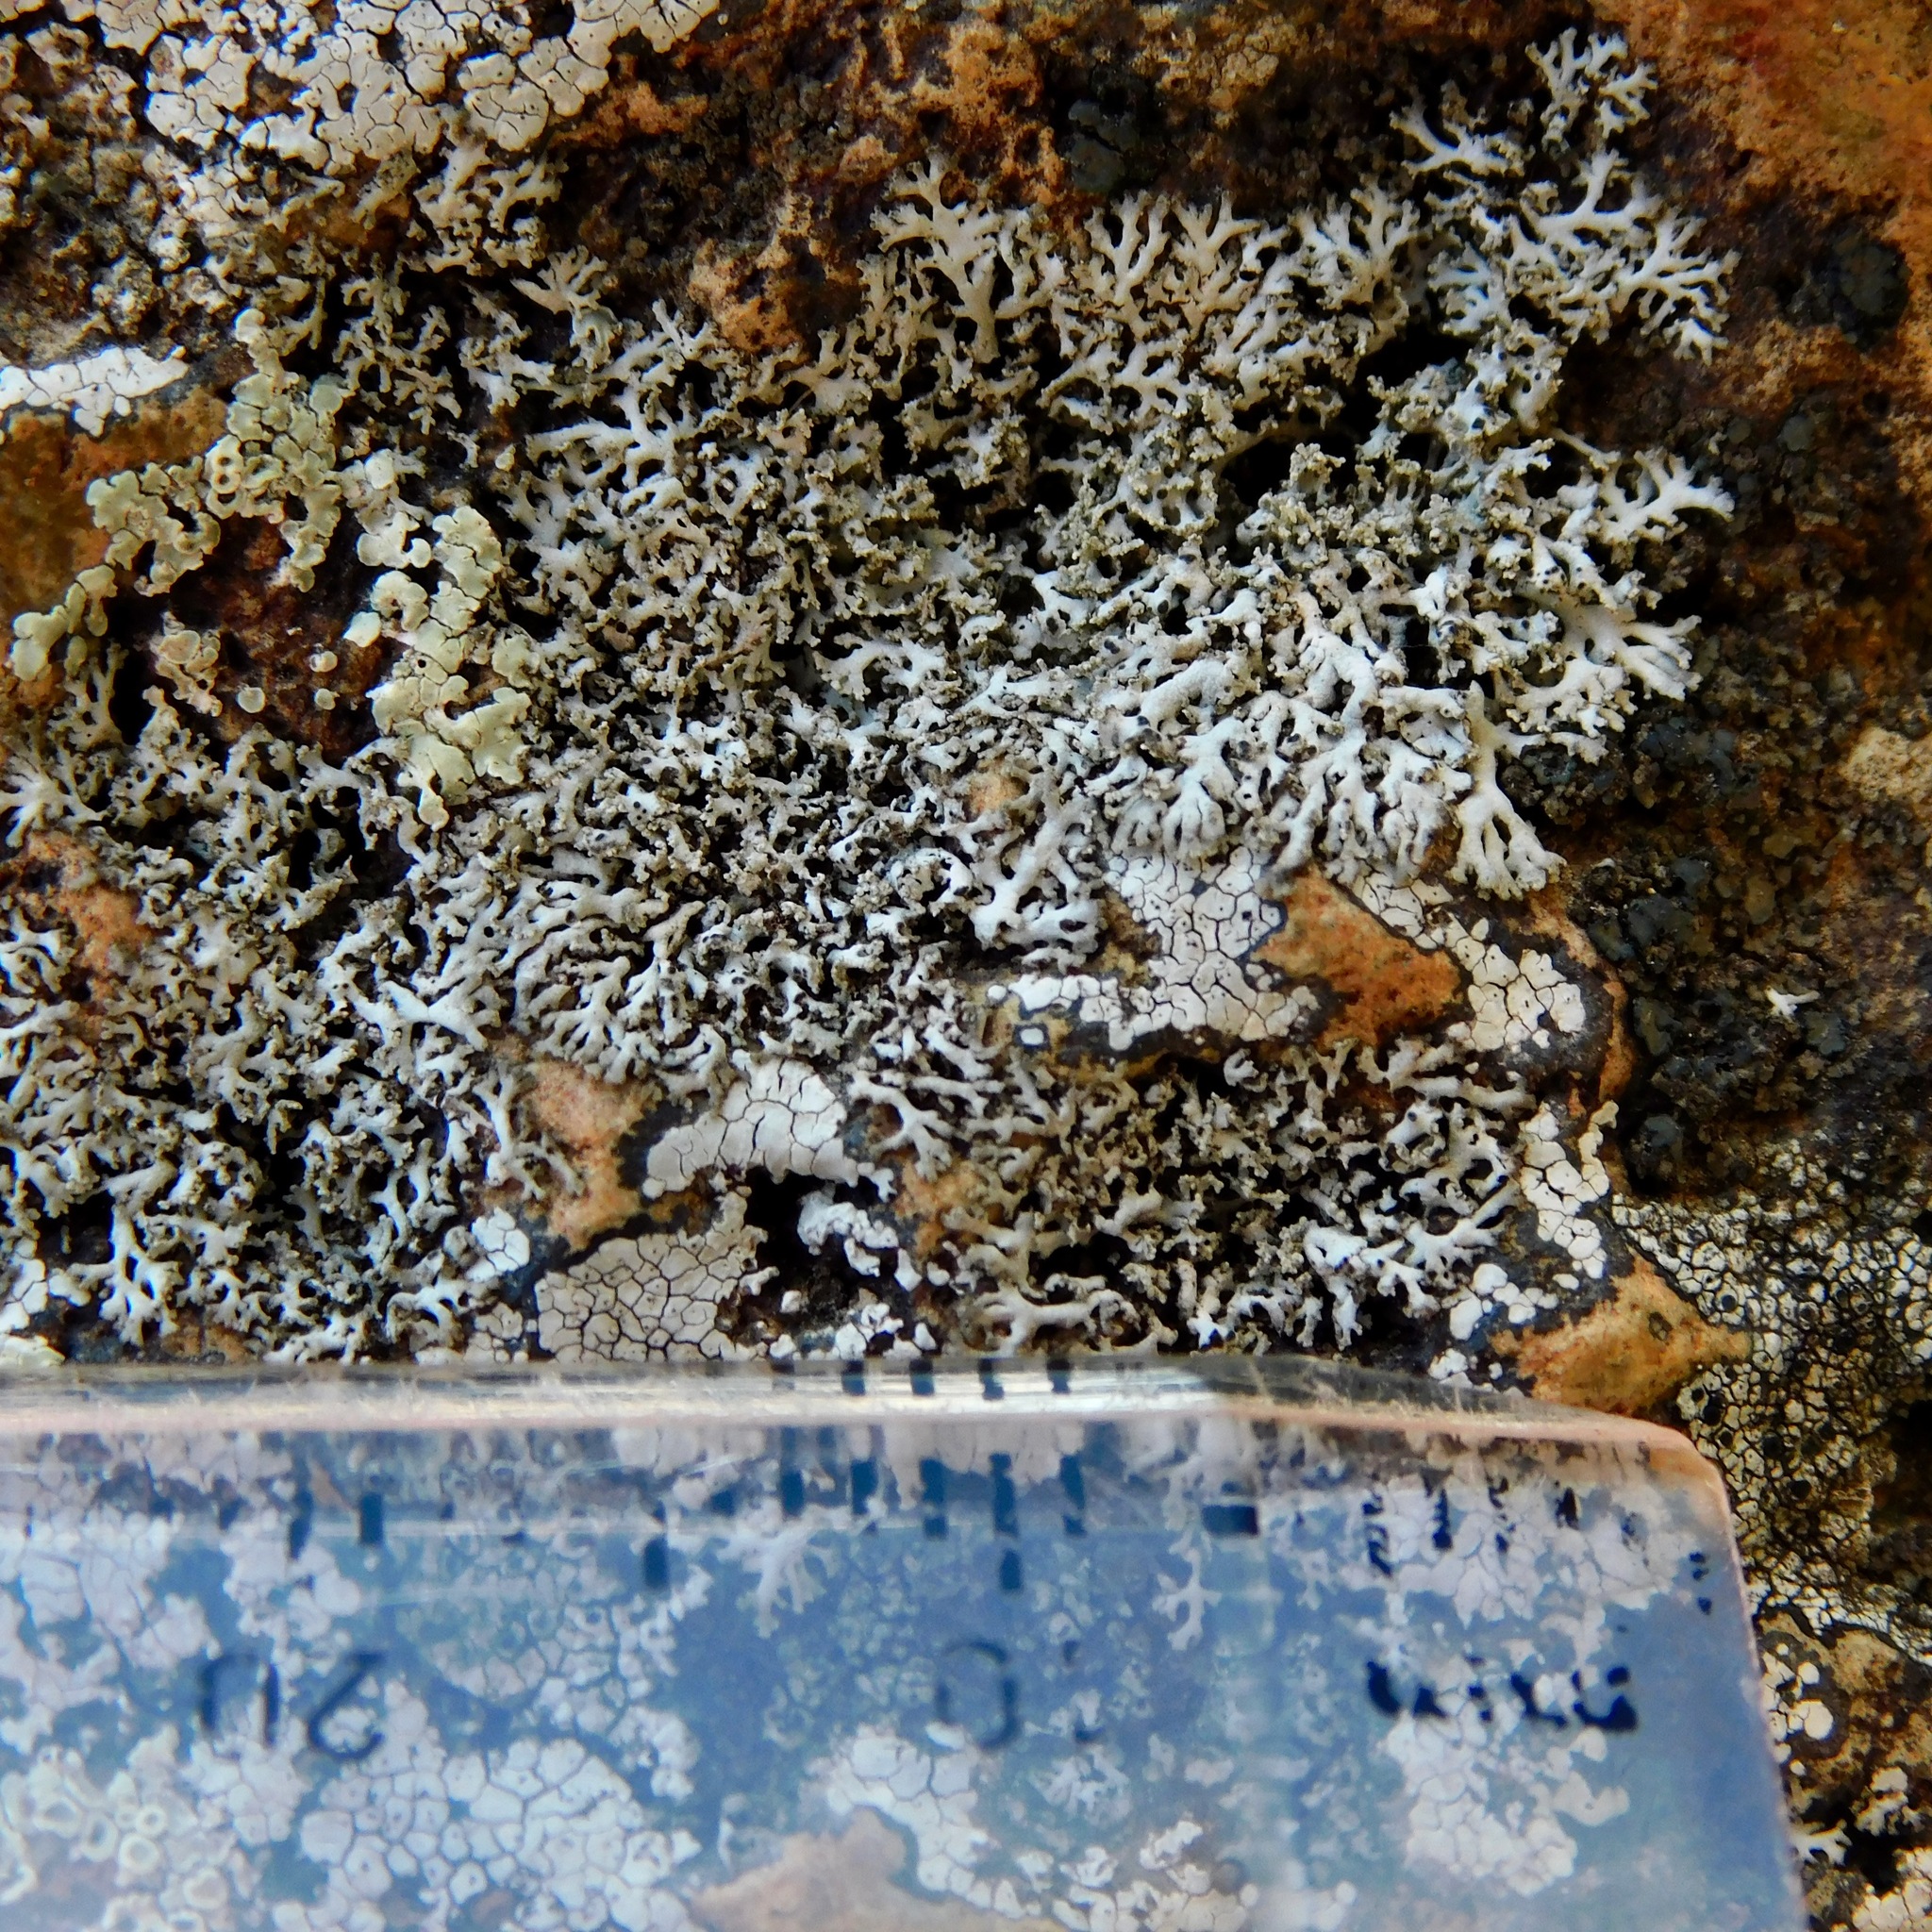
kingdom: Fungi
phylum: Ascomycota
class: Lecanoromycetes
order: Caliciales
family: Physciaceae
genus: Physcia
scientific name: Physcia subtilis
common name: Slender rosette lichen
